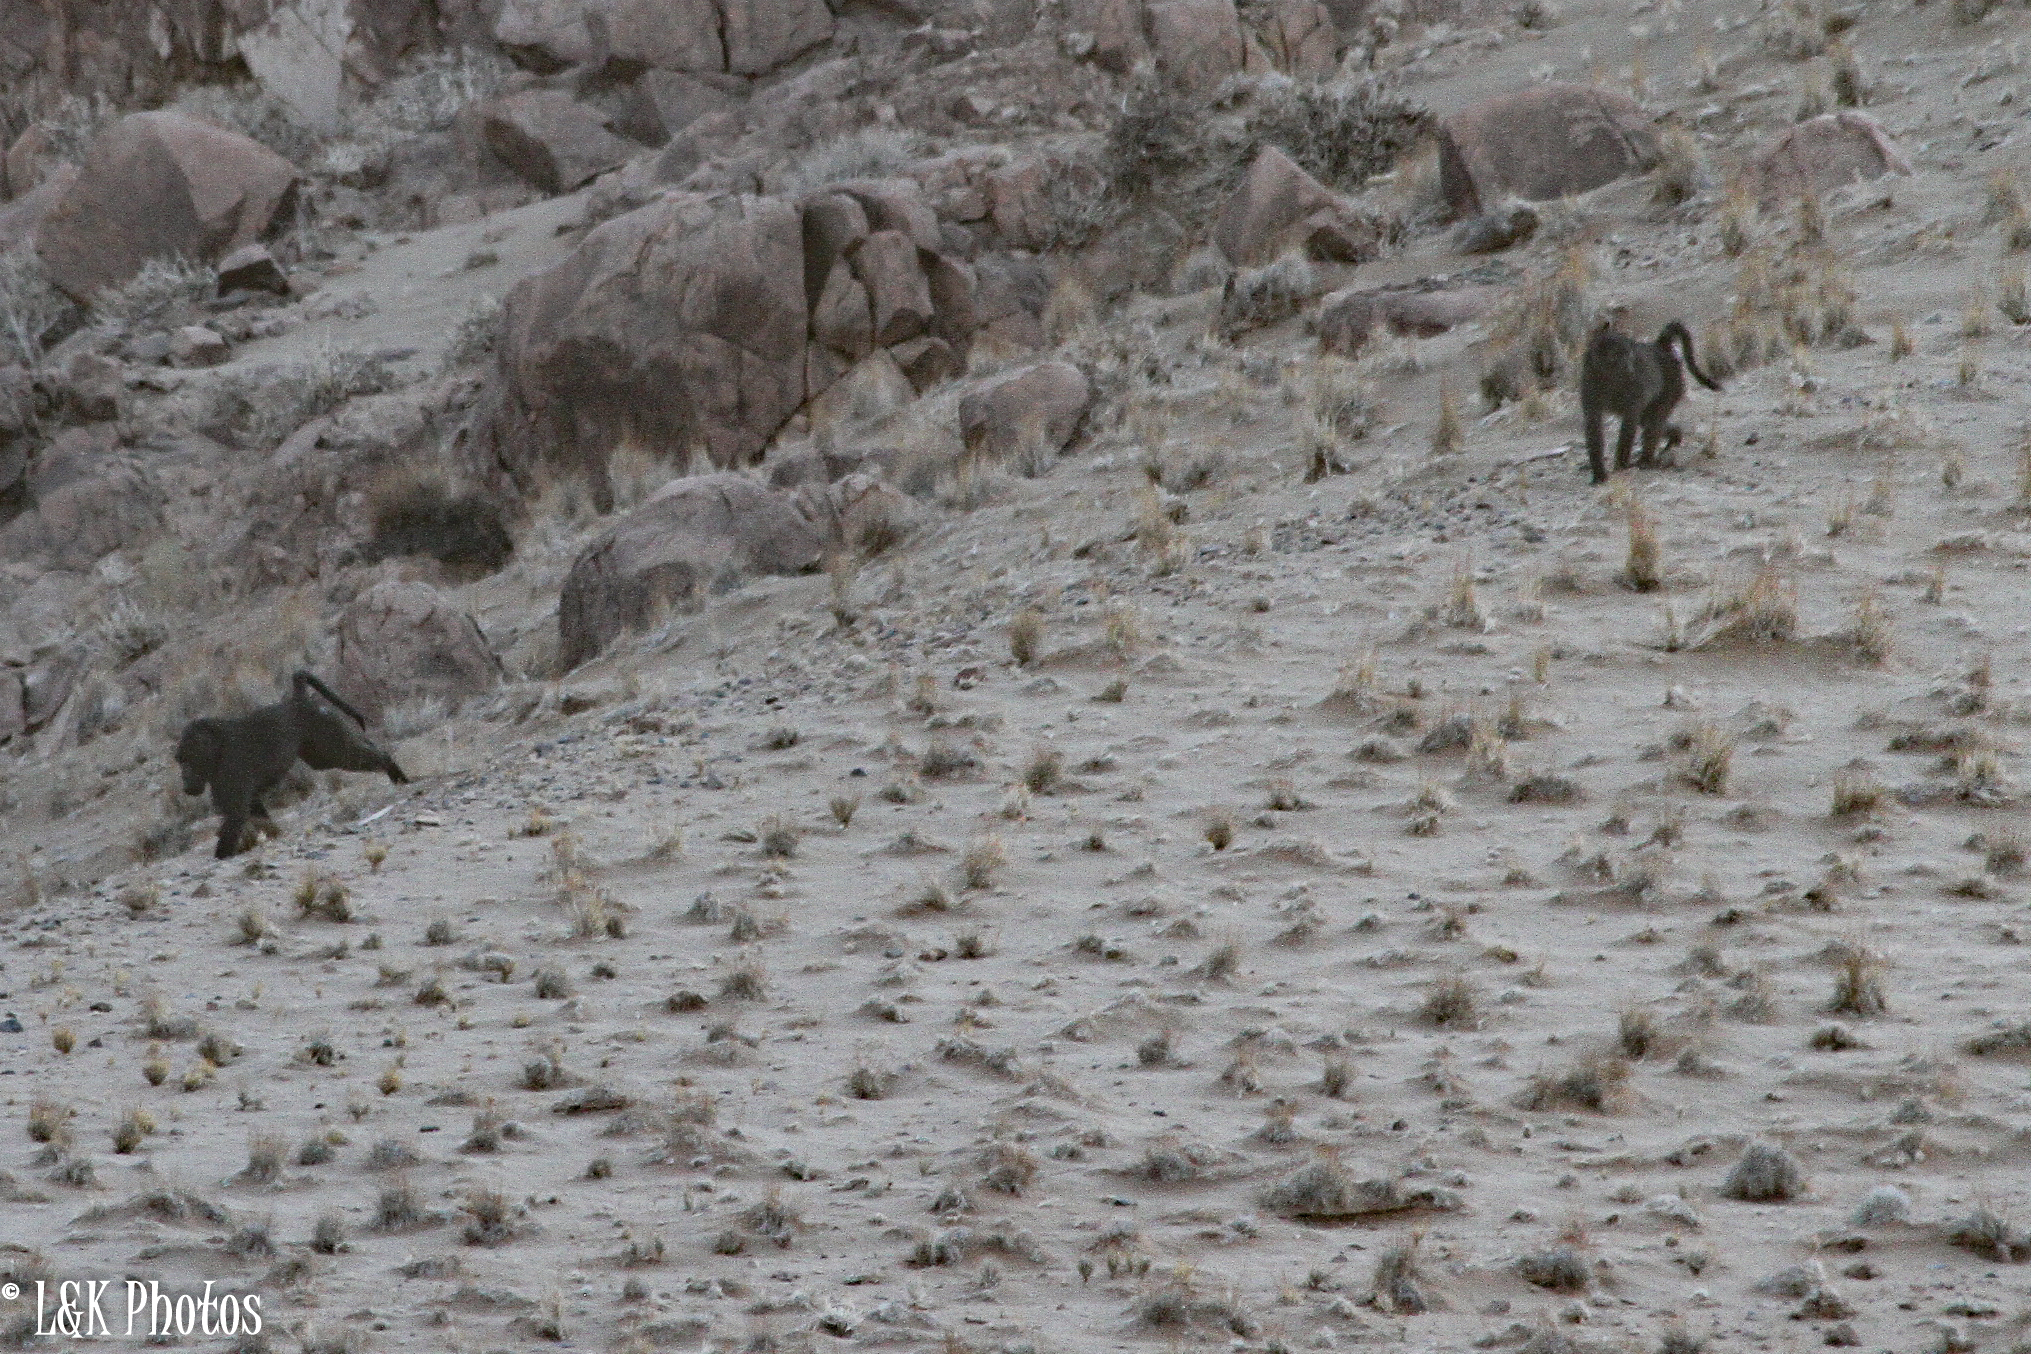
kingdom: Animalia
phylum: Chordata
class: Mammalia
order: Primates
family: Cercopithecidae
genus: Papio
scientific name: Papio ursinus
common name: Chacma baboon
